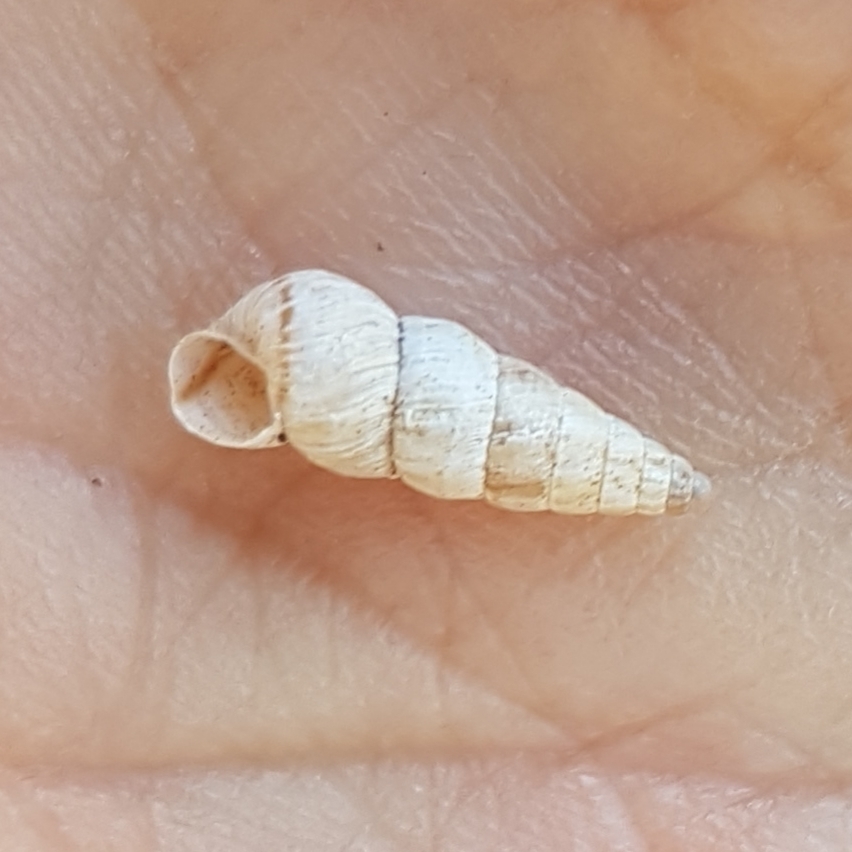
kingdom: Animalia
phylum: Mollusca
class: Gastropoda
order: Stylommatophora
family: Geomitridae
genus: Cochlicella
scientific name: Cochlicella acuta
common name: Pointed snail
